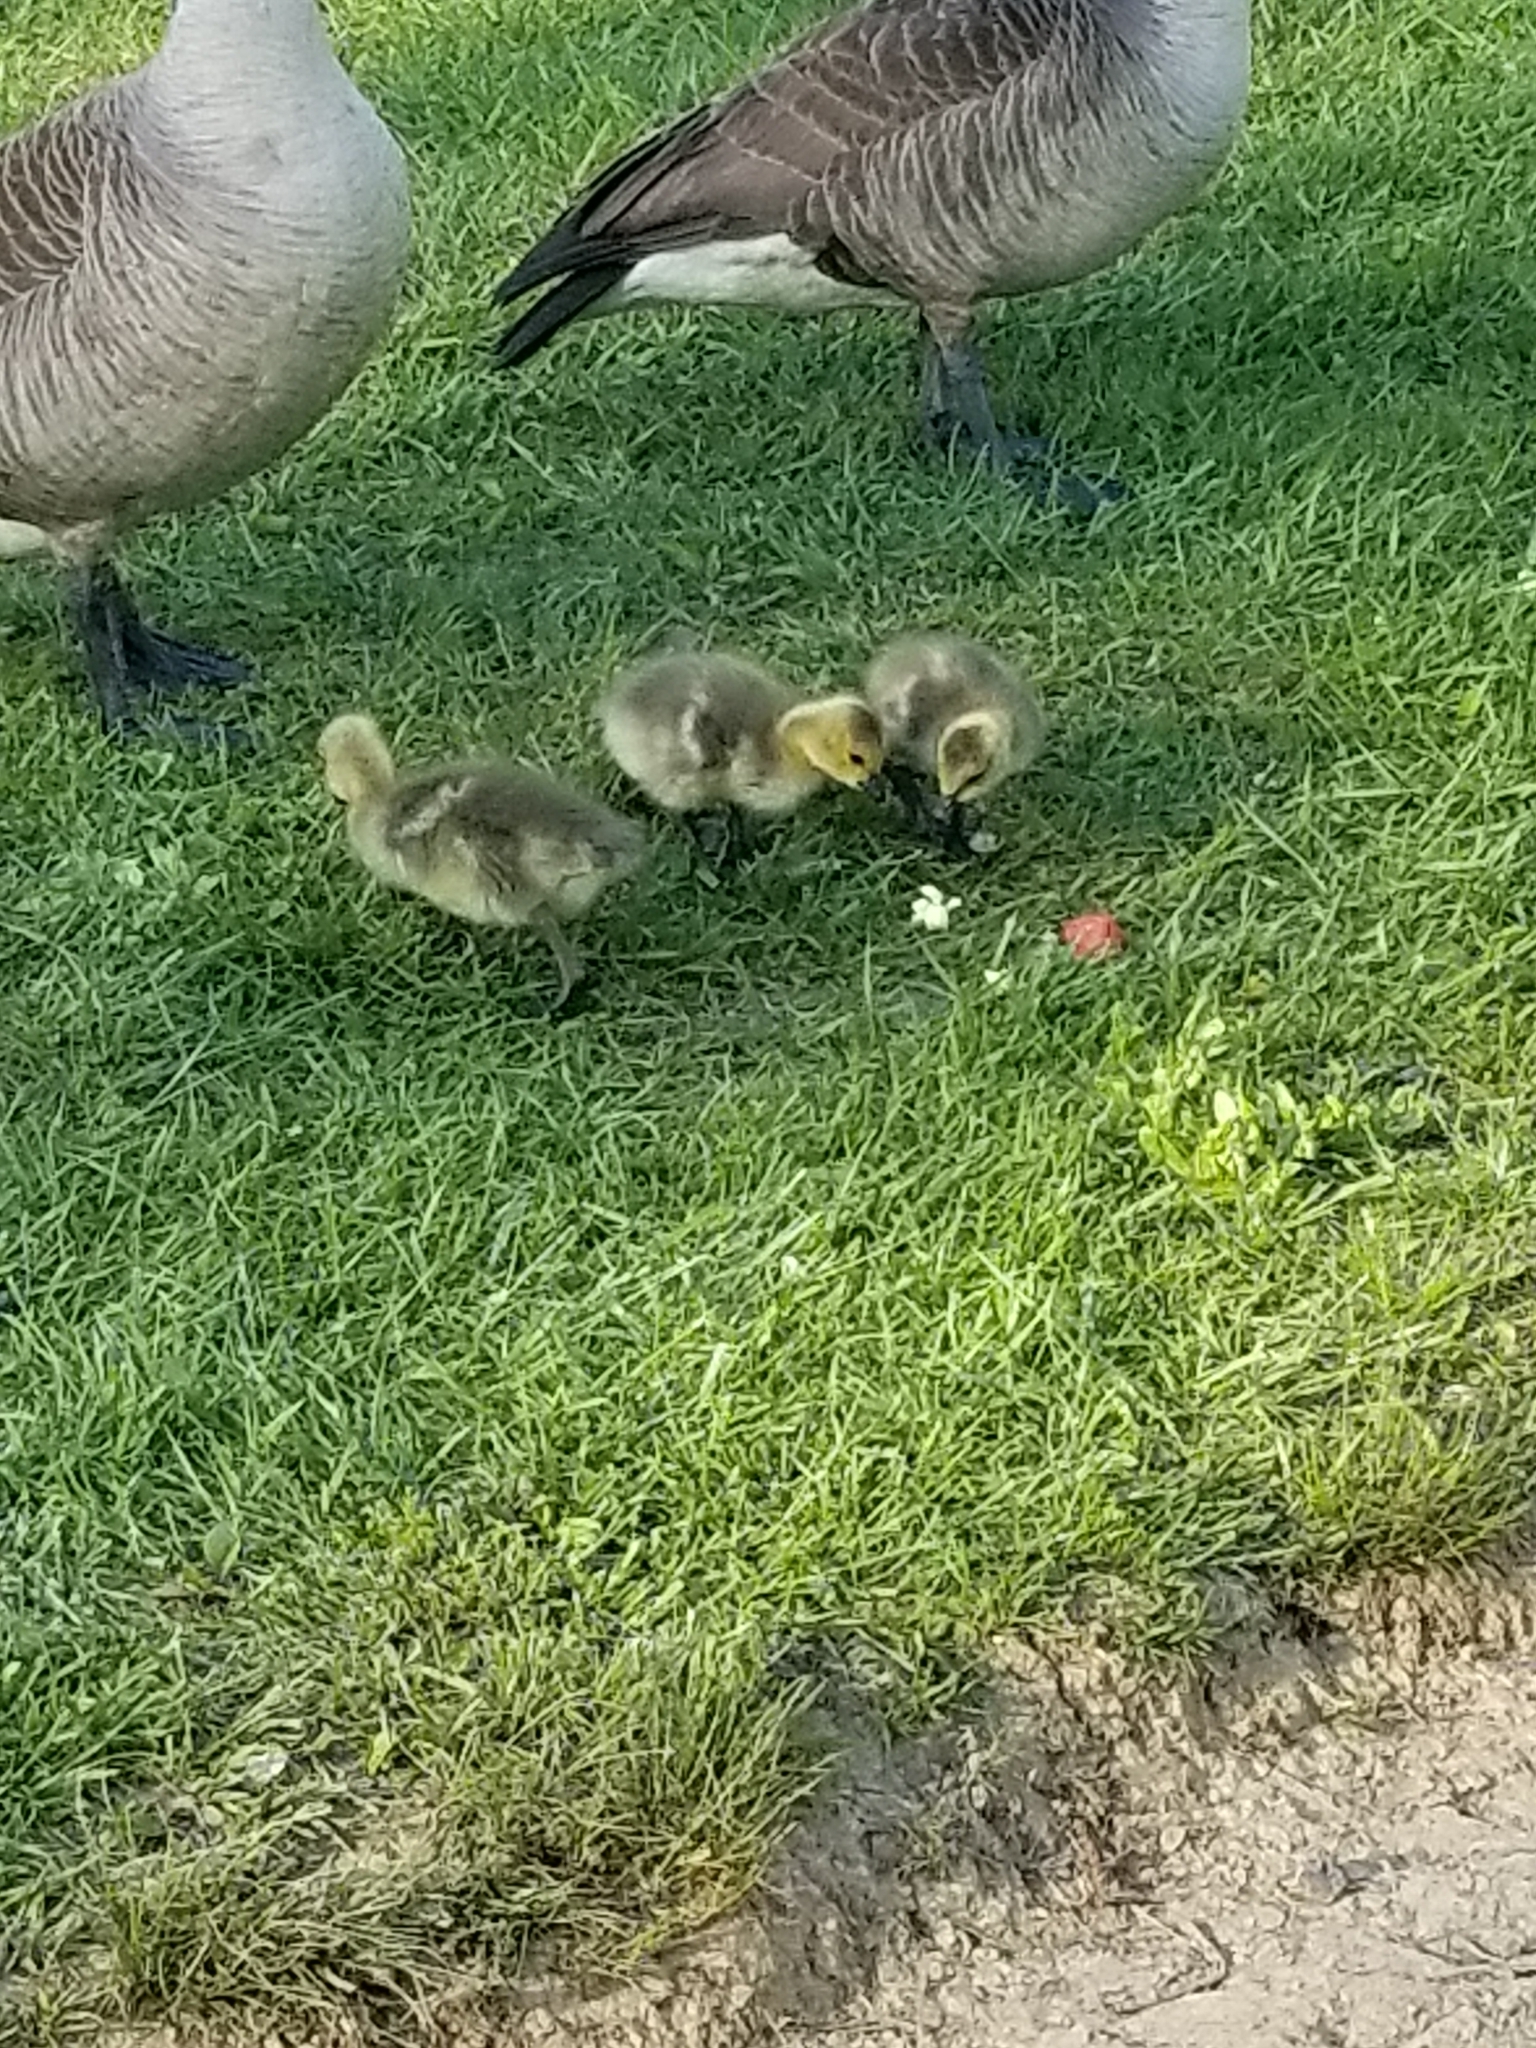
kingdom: Animalia
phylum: Chordata
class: Aves
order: Anseriformes
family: Anatidae
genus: Branta
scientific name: Branta canadensis
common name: Canada goose
